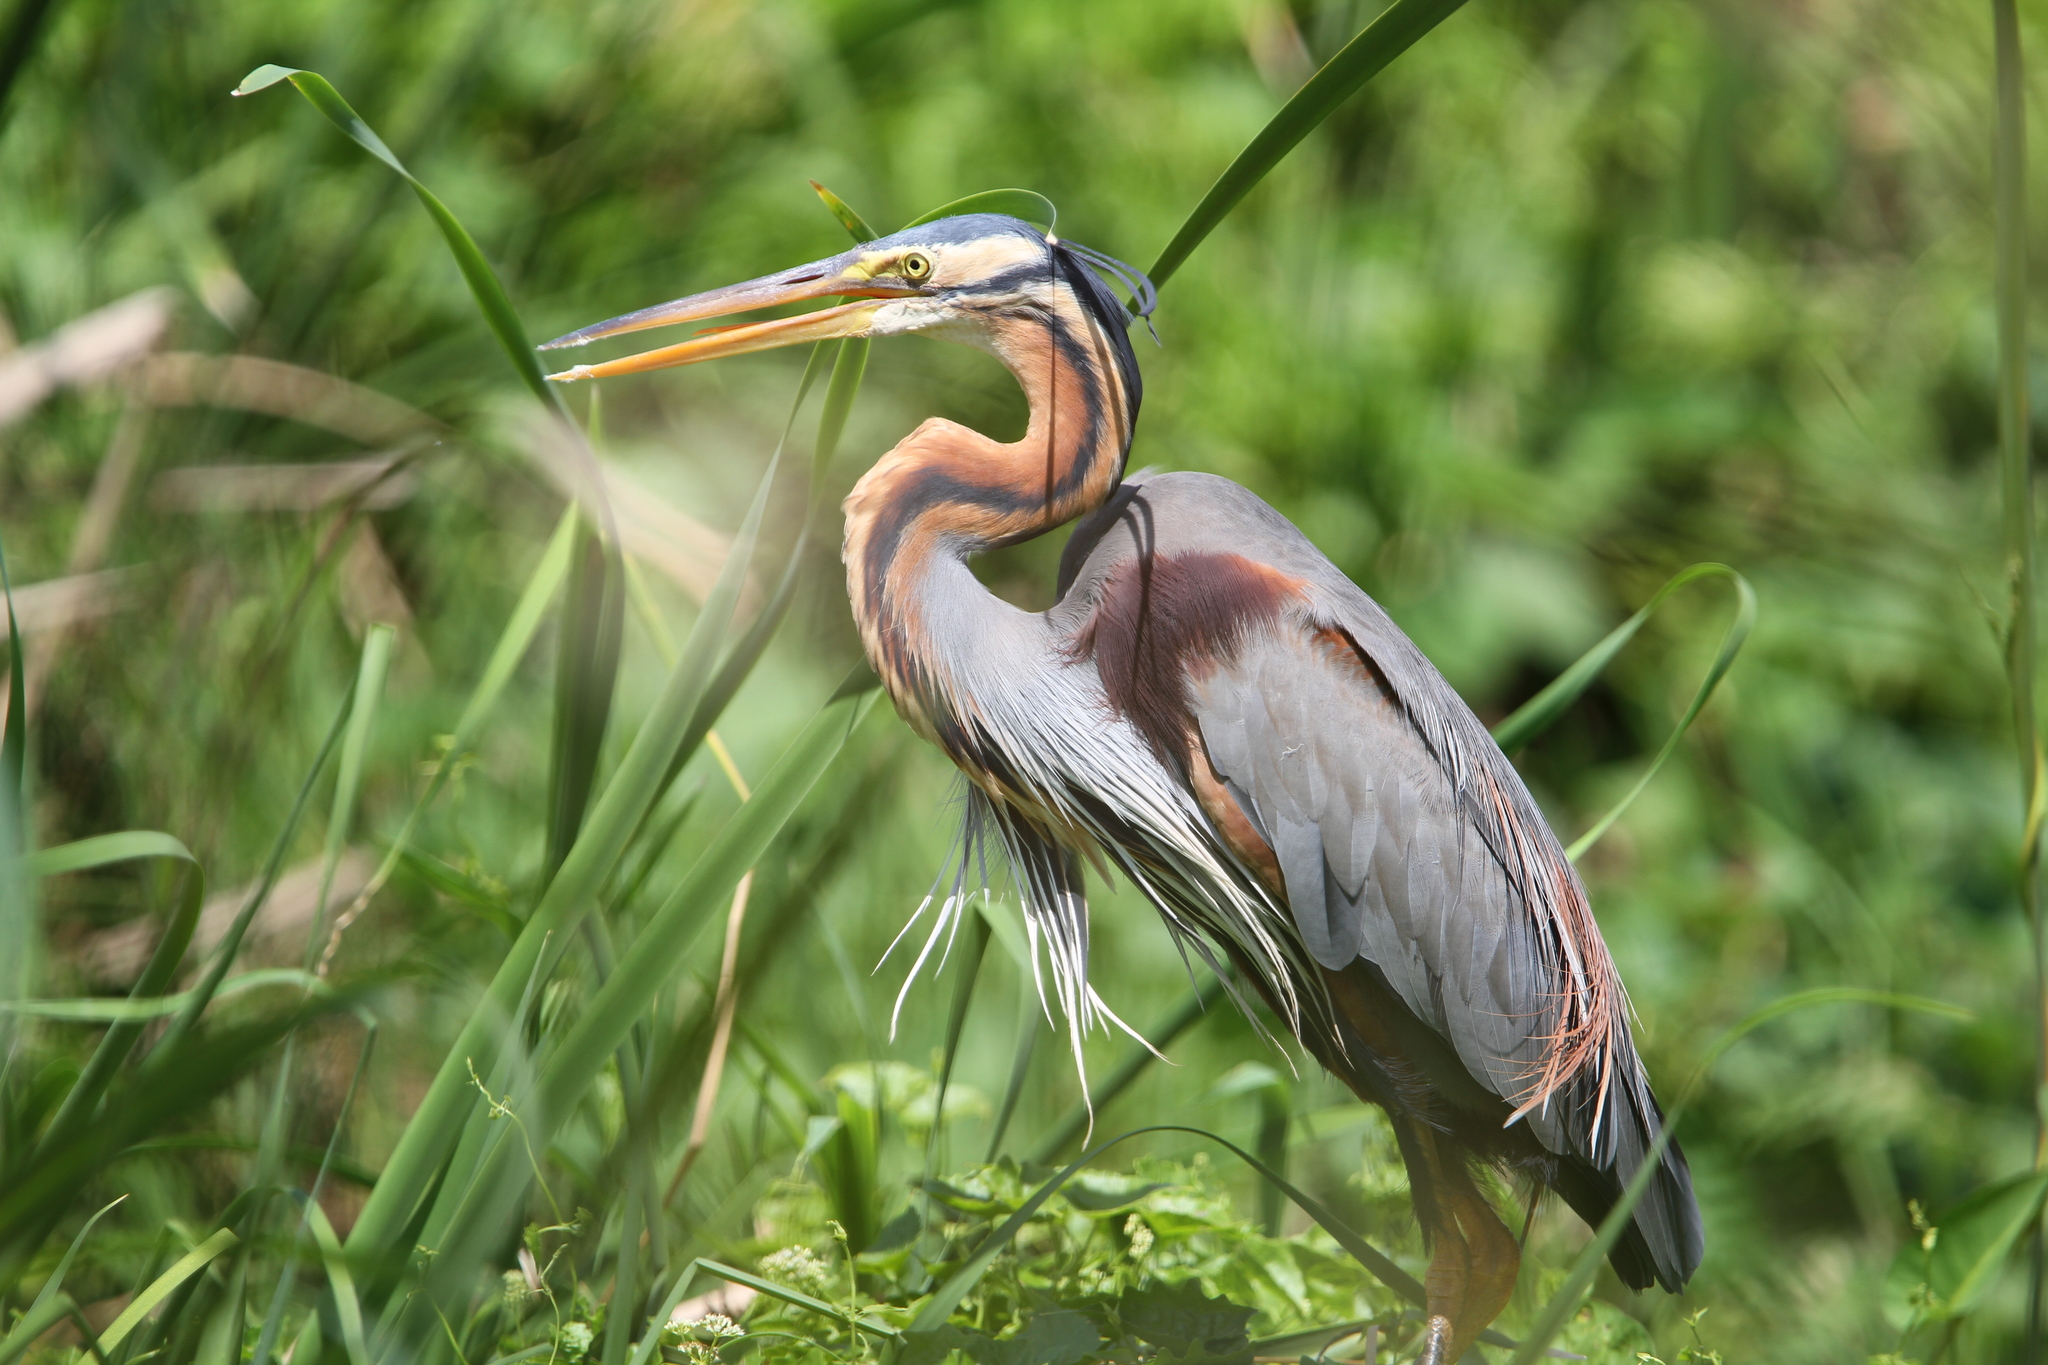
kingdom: Animalia
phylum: Chordata
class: Aves
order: Pelecaniformes
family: Ardeidae
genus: Ardea
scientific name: Ardea purpurea
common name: Purple heron
